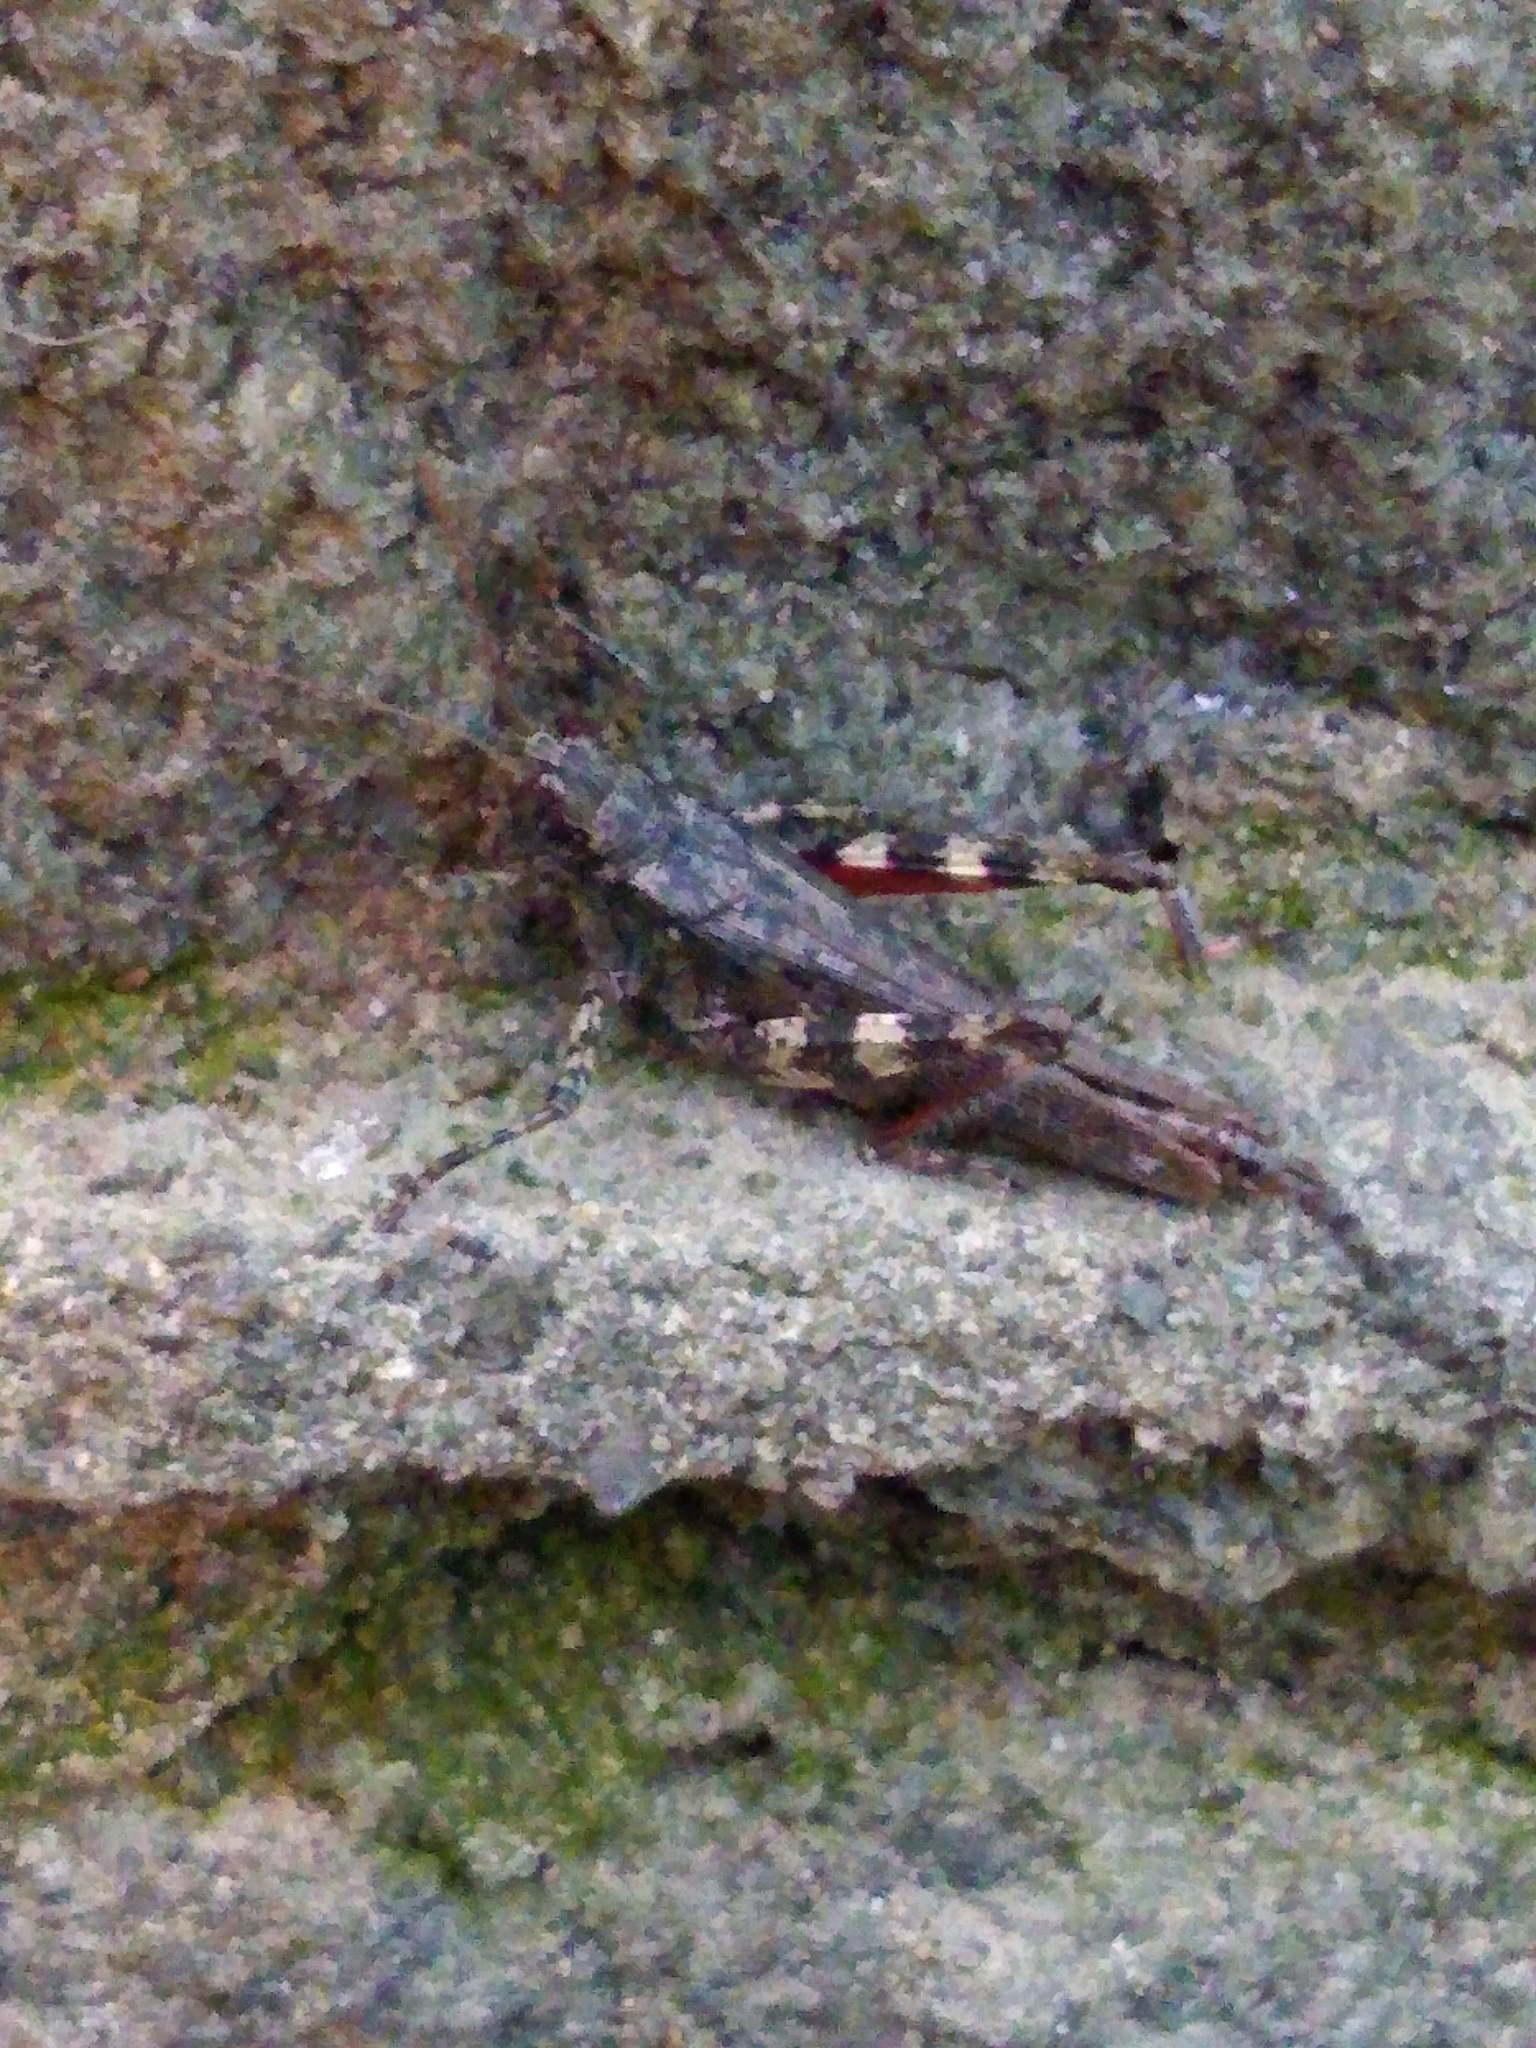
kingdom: Animalia
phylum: Arthropoda
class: Insecta
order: Orthoptera
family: Acrididae
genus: Melanoplus
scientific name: Melanoplus punctulatus
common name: Pine-tree spur-throat grasshopper
